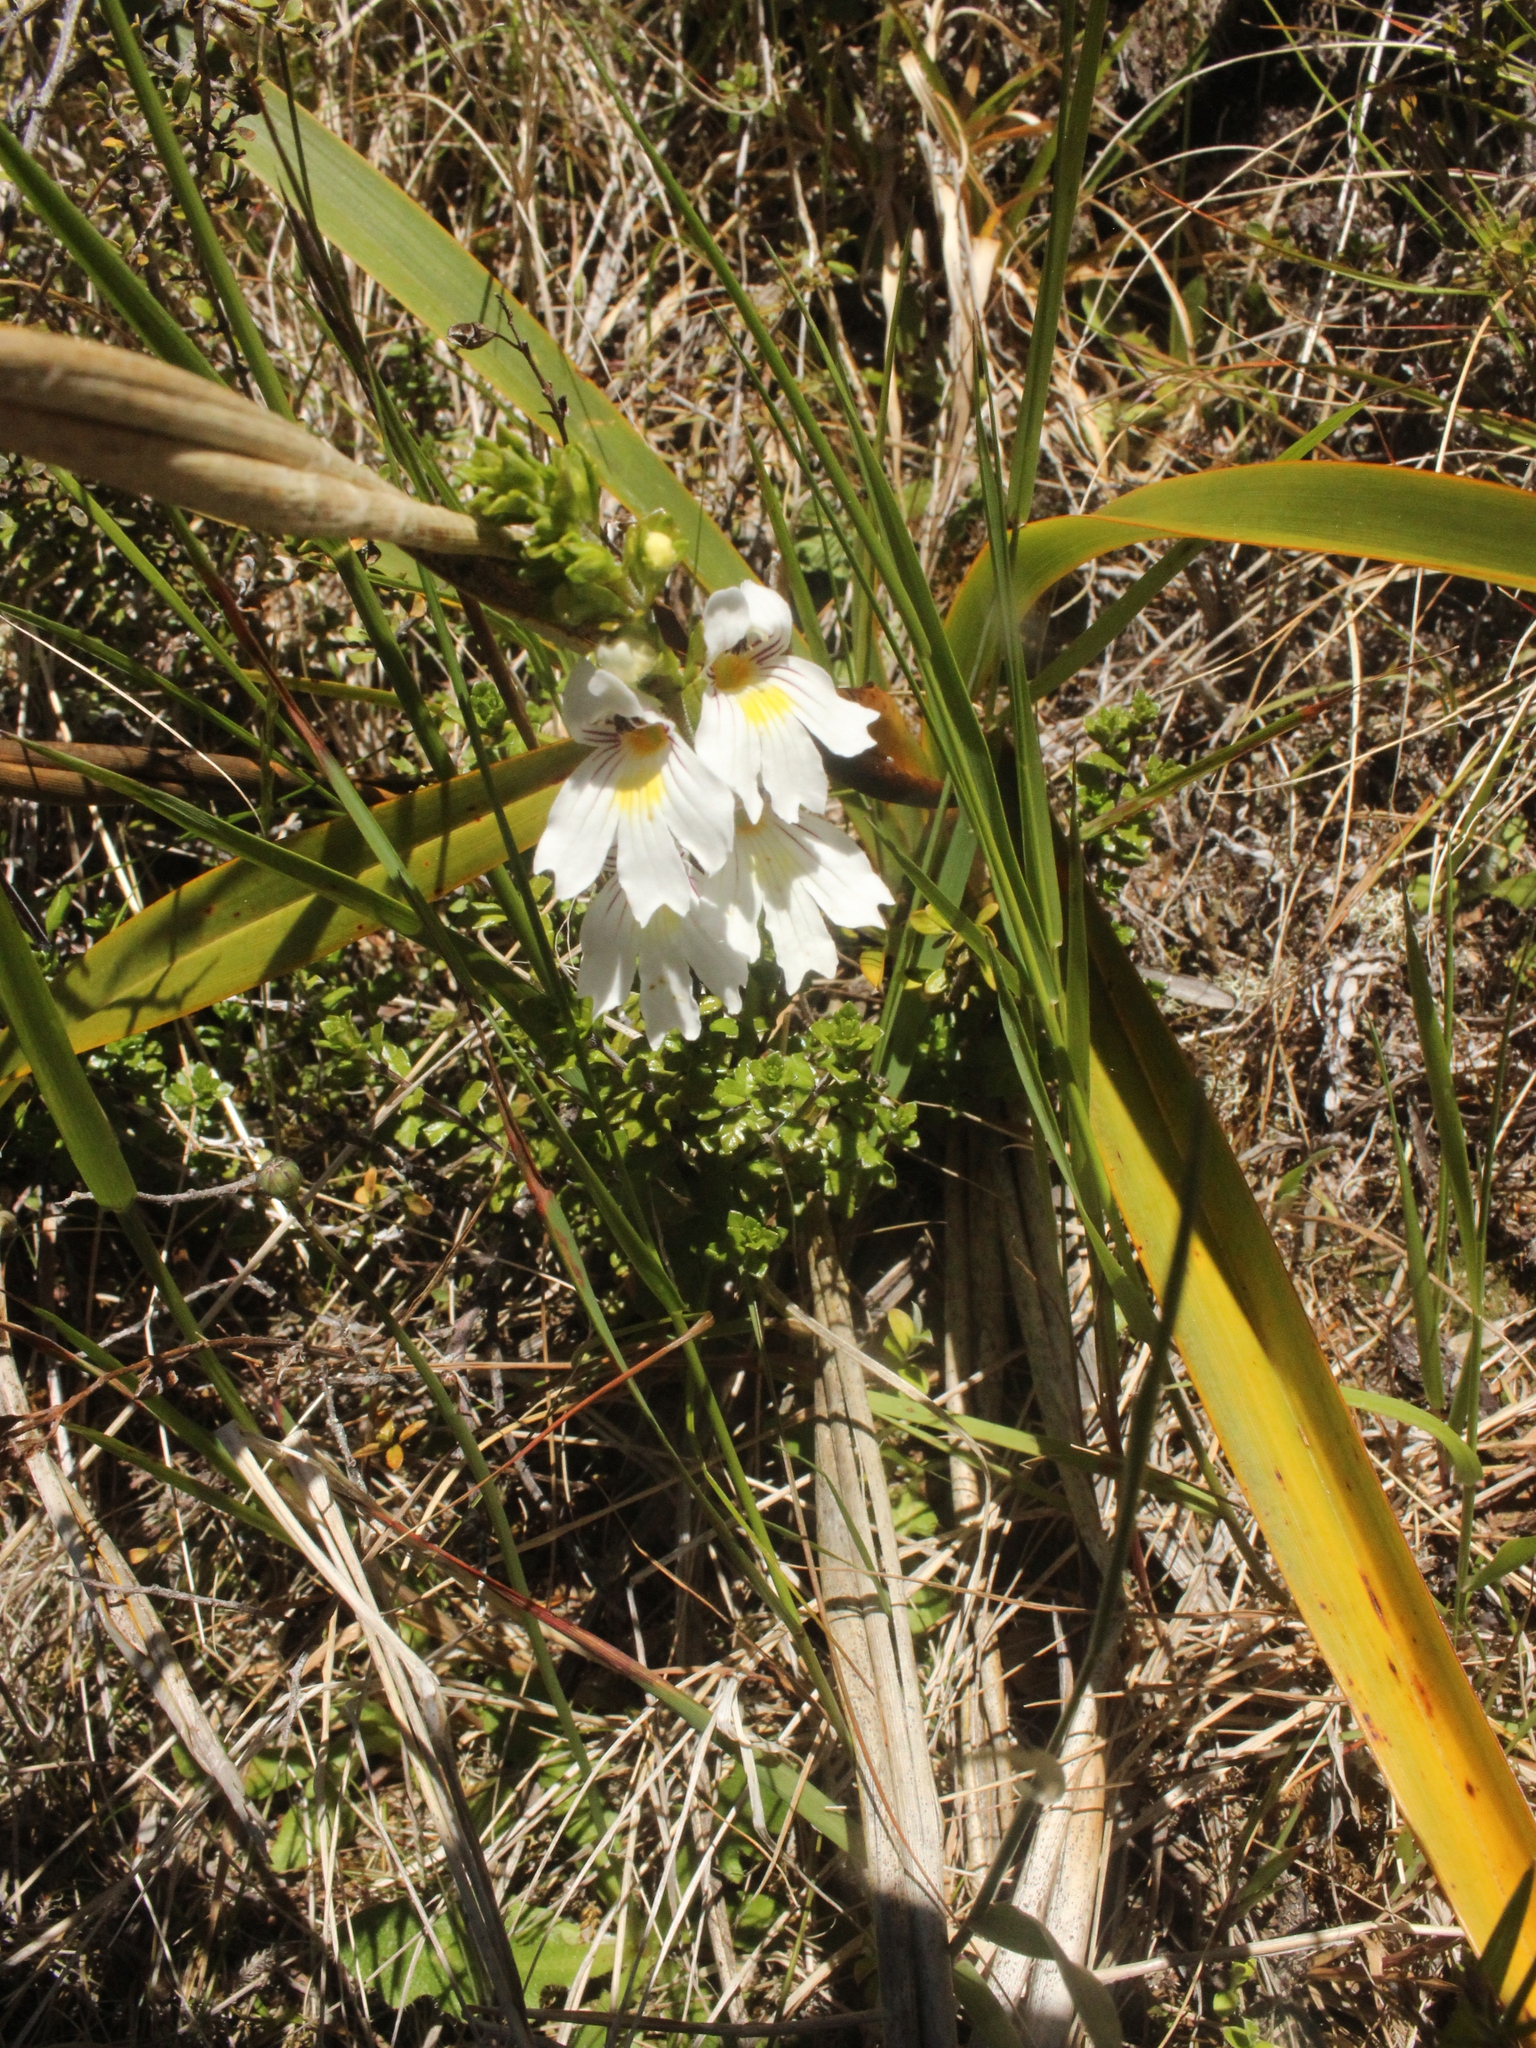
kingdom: Plantae
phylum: Tracheophyta
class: Magnoliopsida
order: Lamiales
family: Orobanchaceae
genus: Euphrasia
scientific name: Euphrasia cuneata
